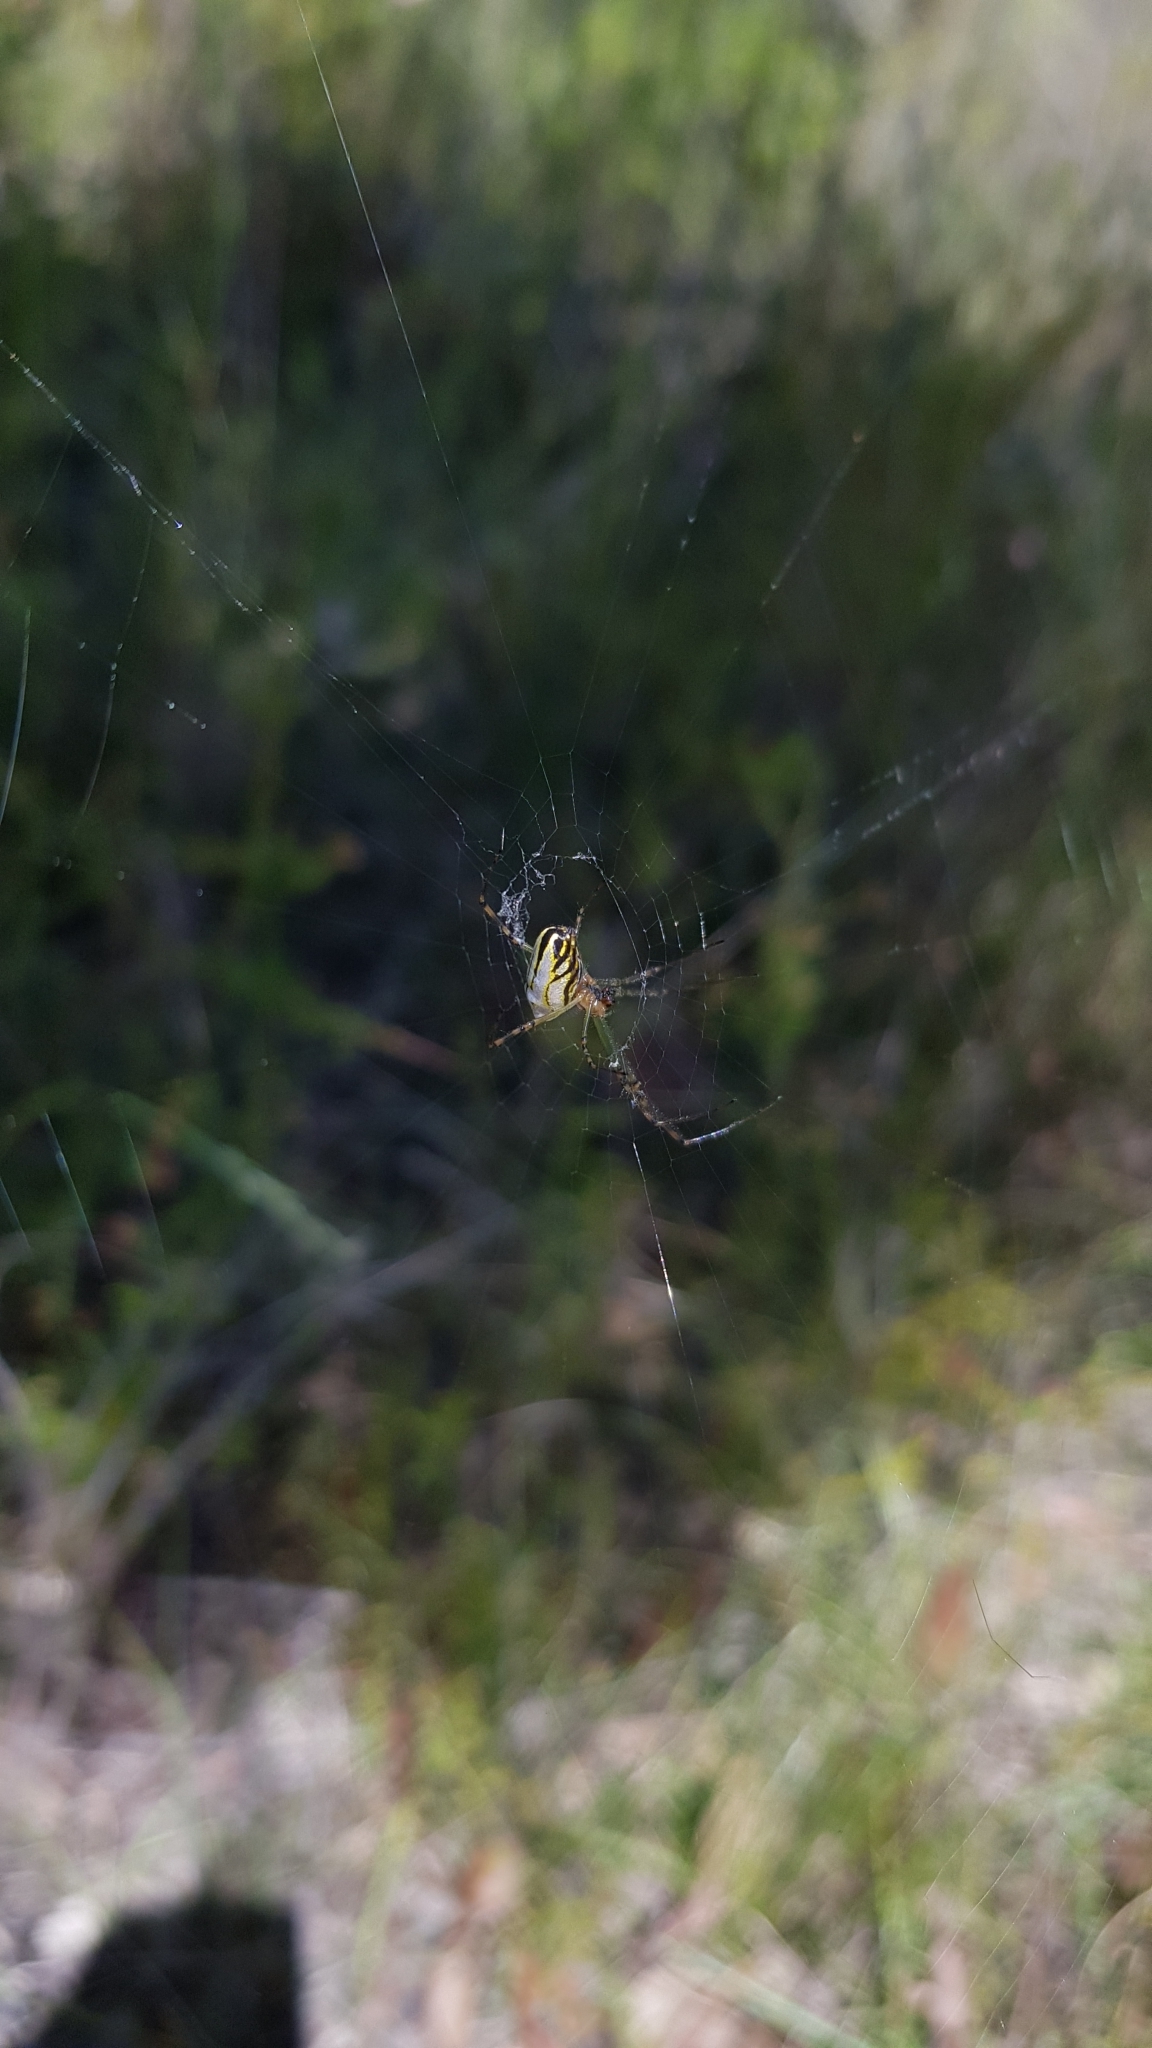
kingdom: Animalia
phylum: Arthropoda
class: Arachnida
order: Araneae
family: Tetragnathidae
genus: Leucauge
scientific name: Leucauge dromedaria
